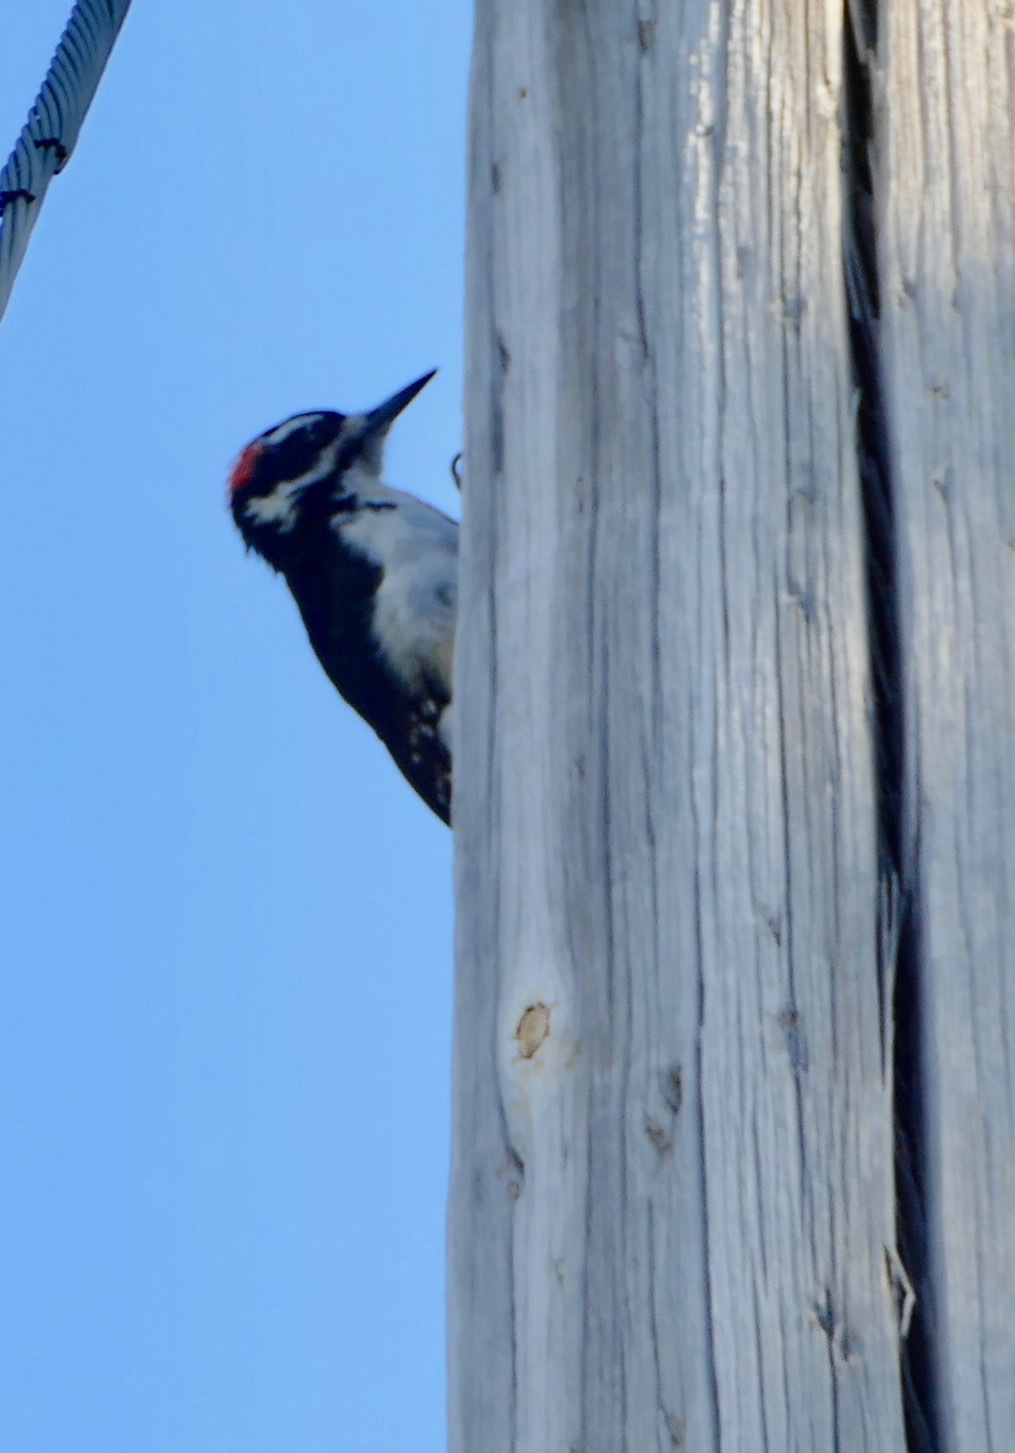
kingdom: Animalia
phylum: Chordata
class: Aves
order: Piciformes
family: Picidae
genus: Leuconotopicus
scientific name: Leuconotopicus villosus
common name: Hairy woodpecker
